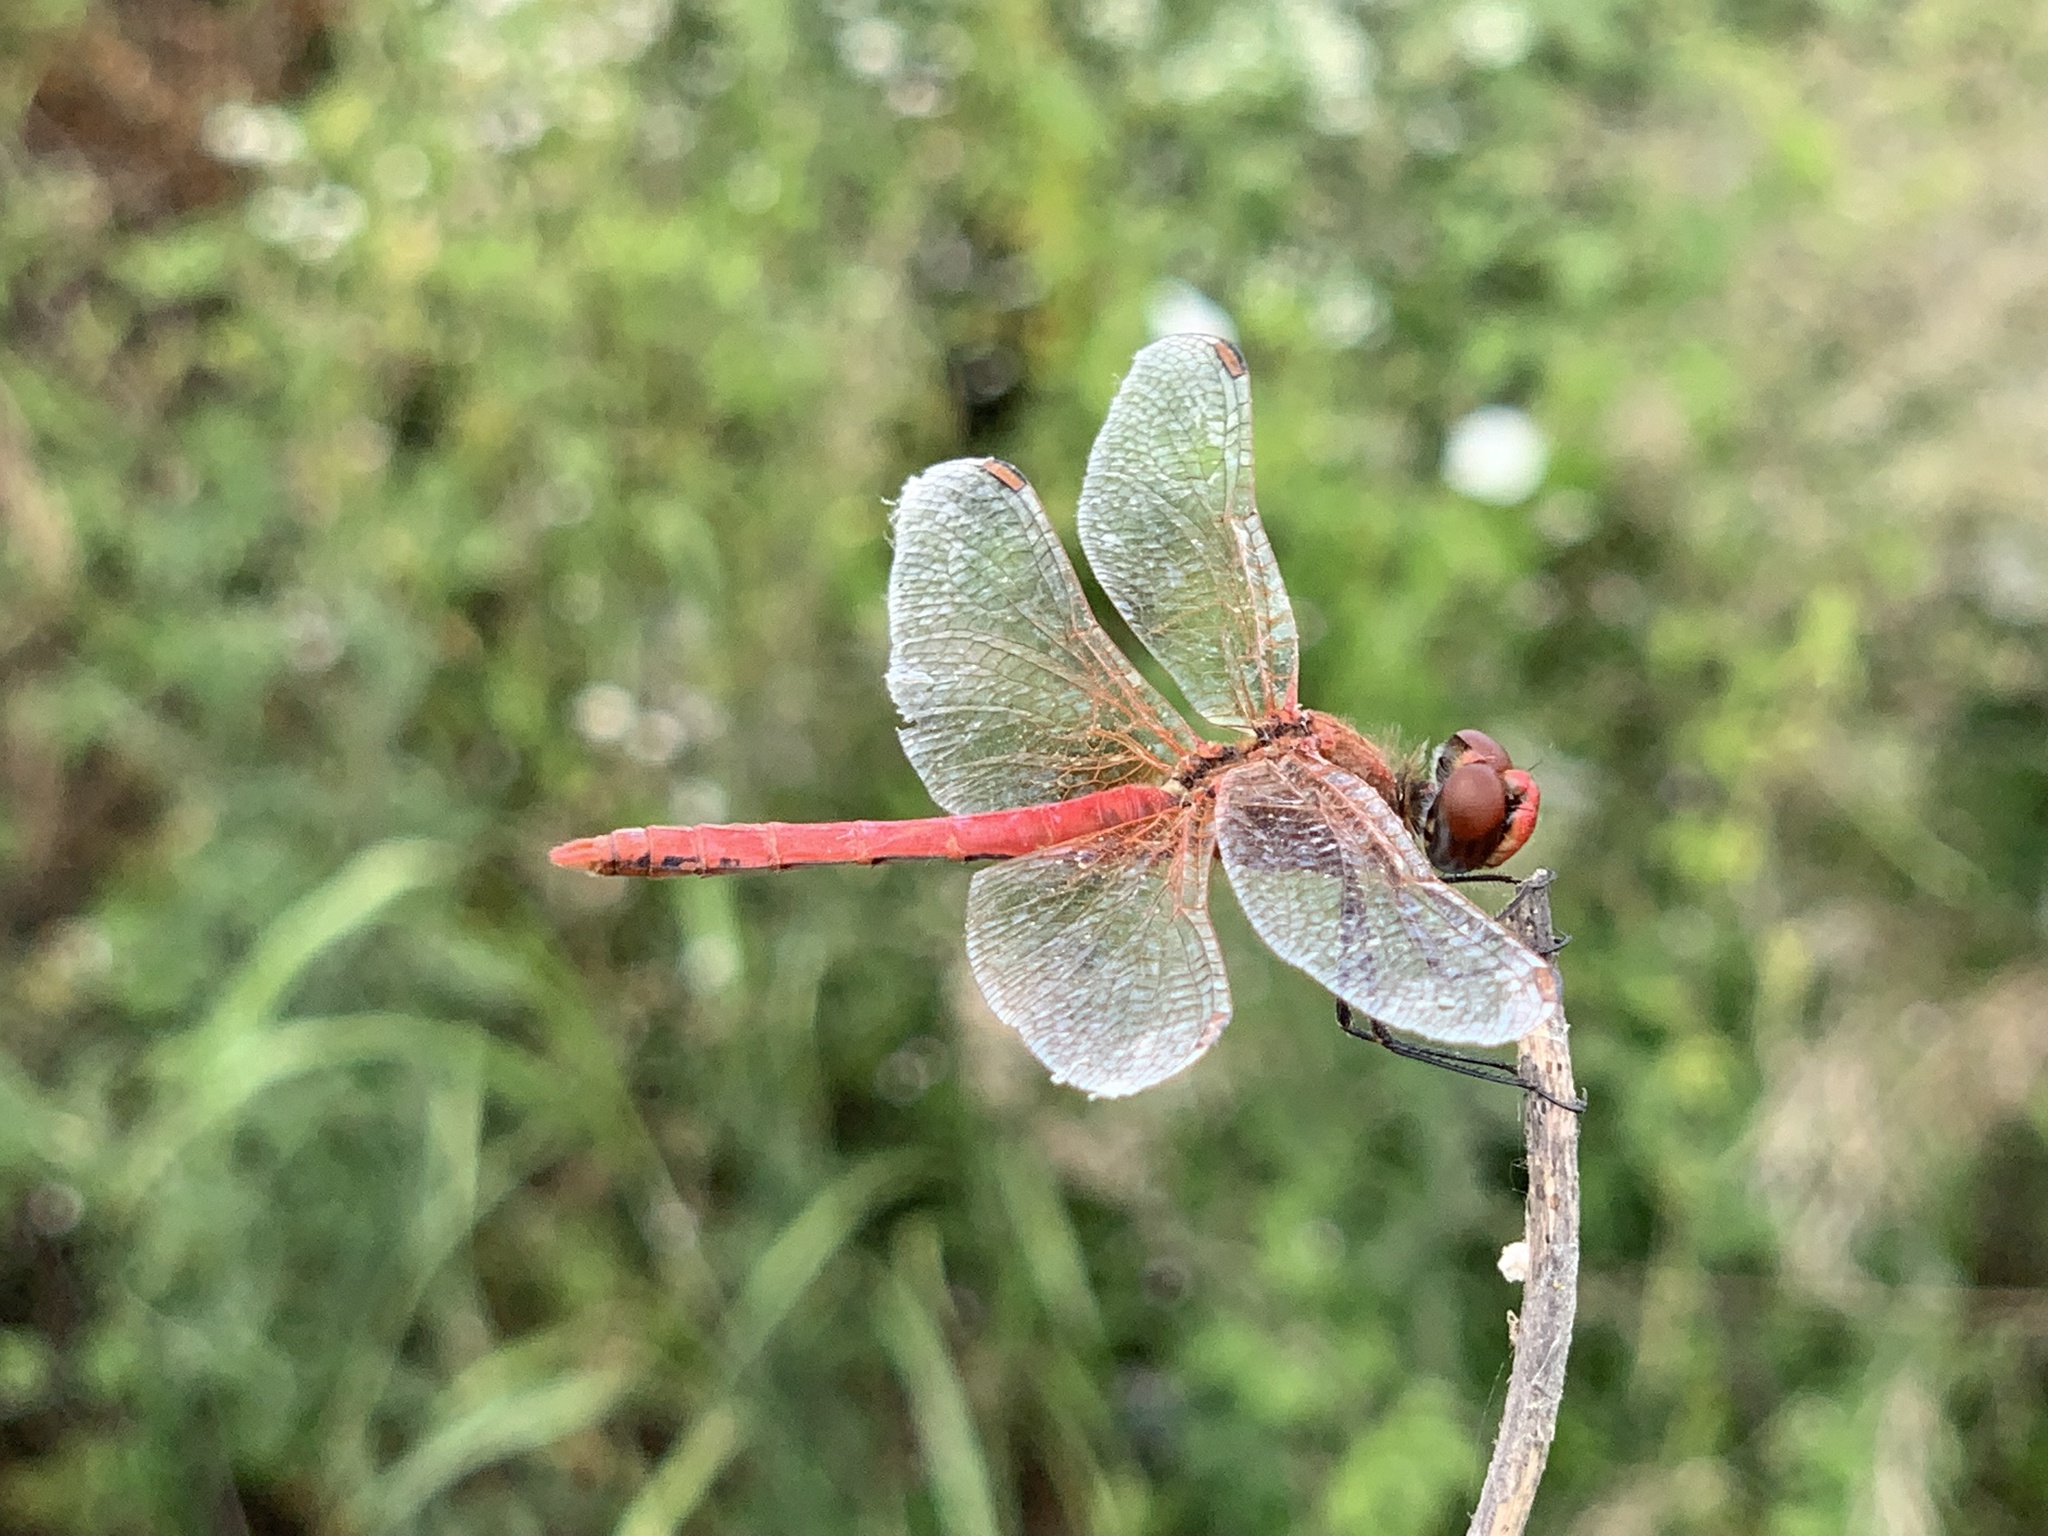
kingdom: Animalia
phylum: Arthropoda
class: Insecta
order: Odonata
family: Libellulidae
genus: Sympetrum
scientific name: Sympetrum fonscolombii
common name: Red-veined darter
